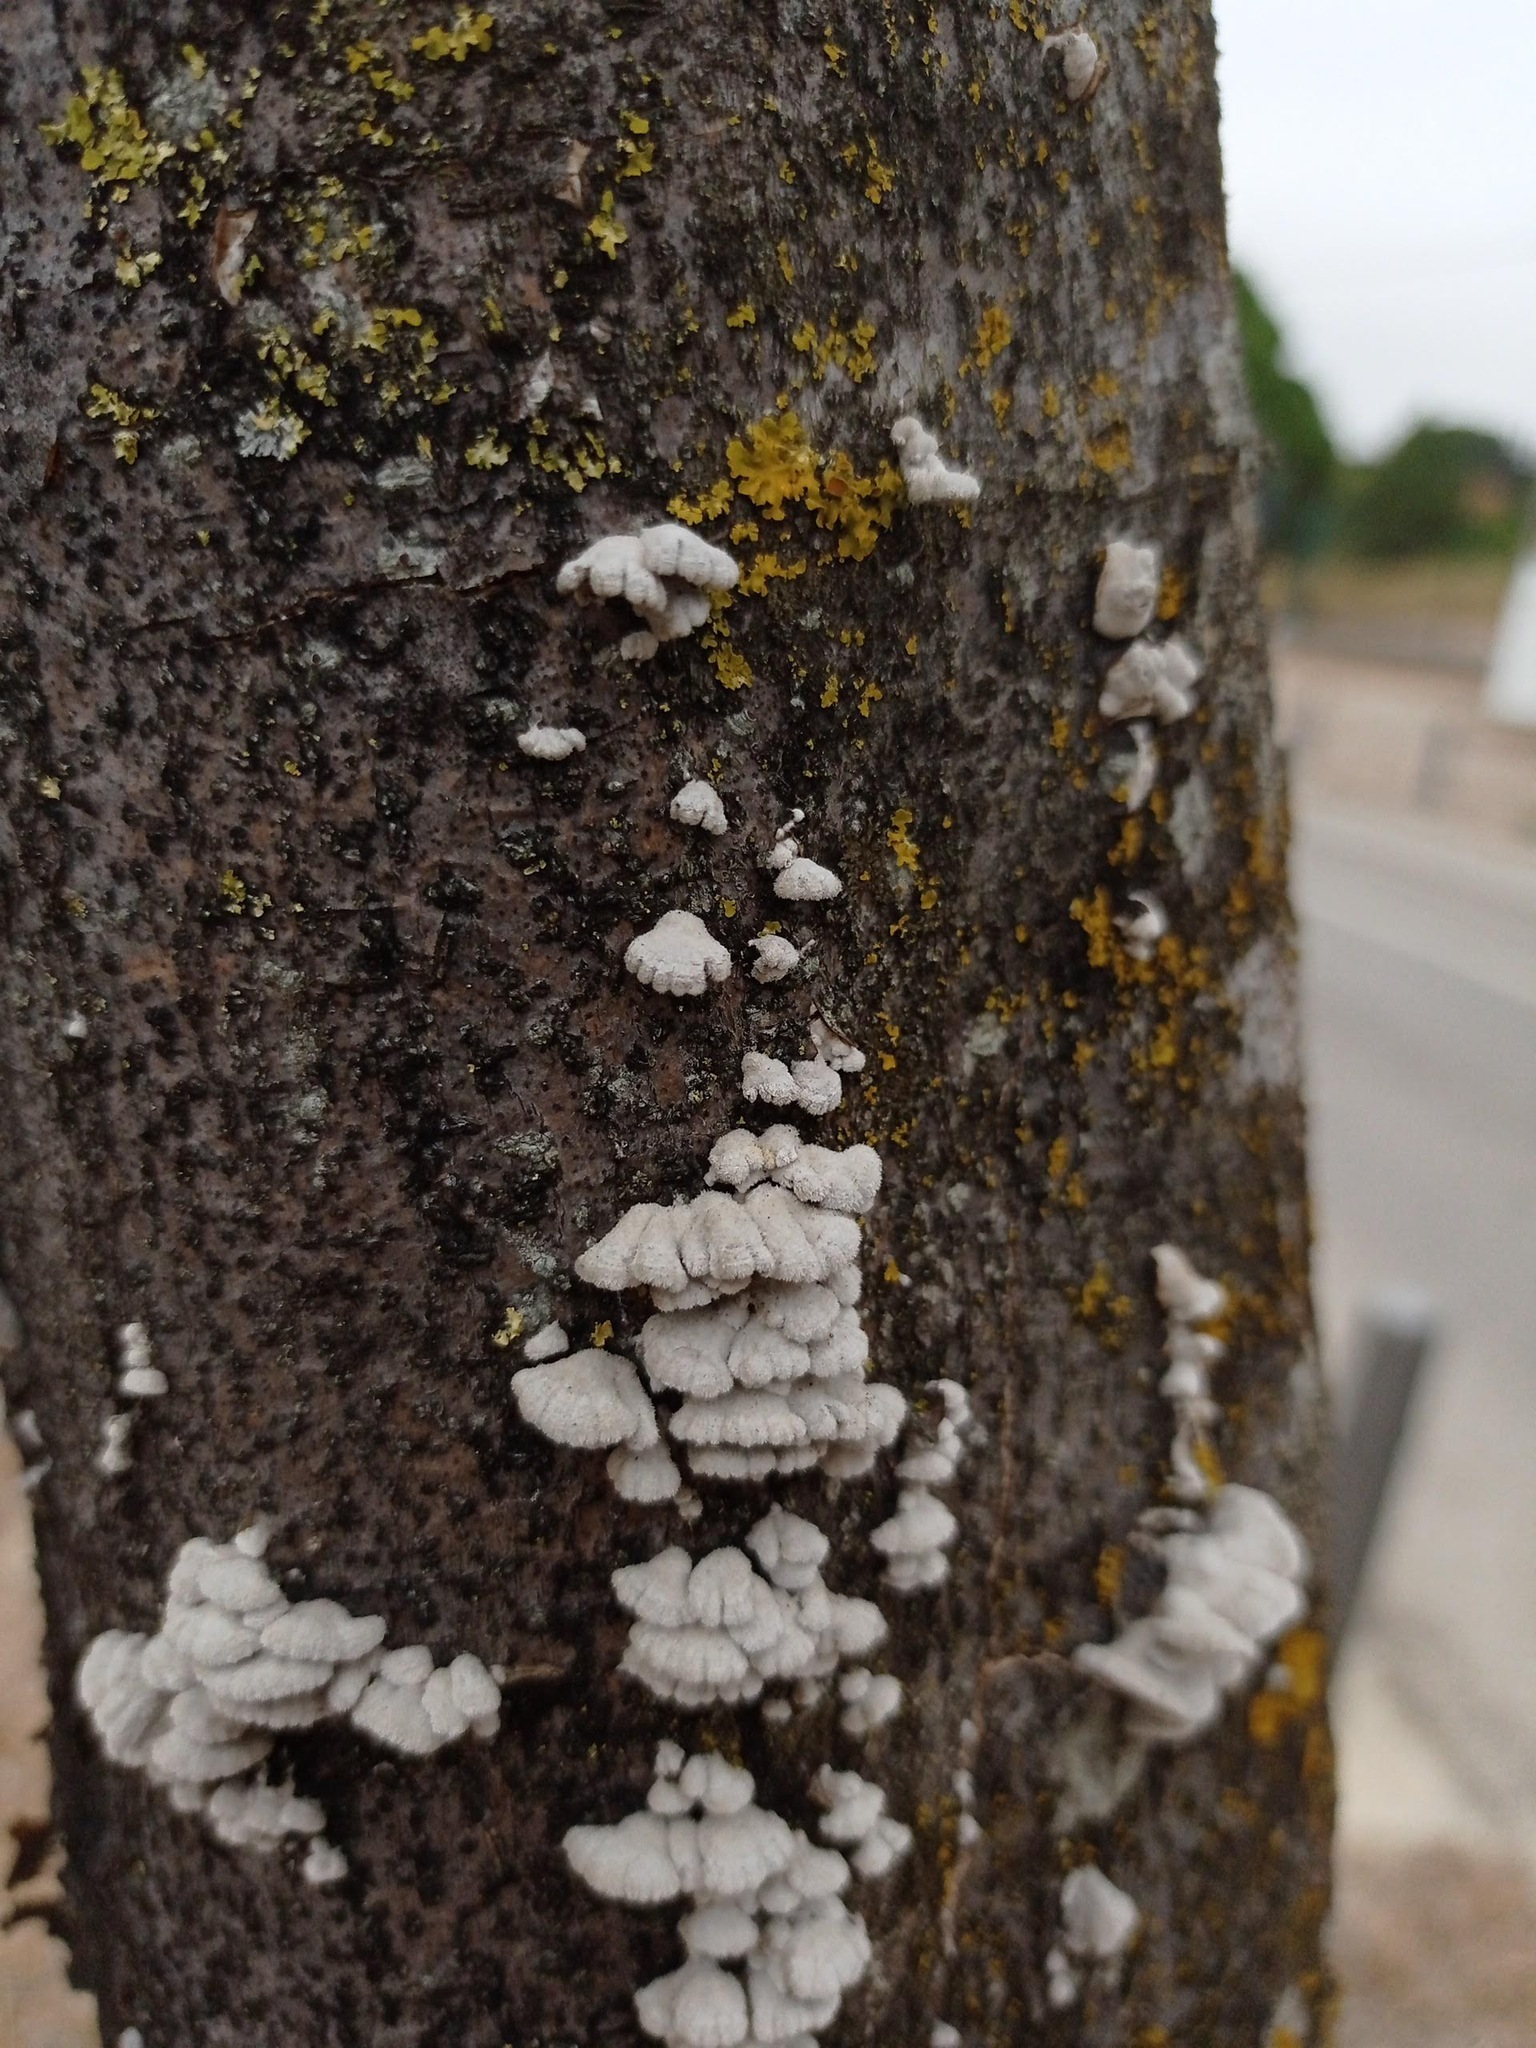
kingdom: Fungi
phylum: Basidiomycota
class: Agaricomycetes
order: Agaricales
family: Schizophyllaceae
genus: Schizophyllum
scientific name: Schizophyllum commune
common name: Common porecrust
